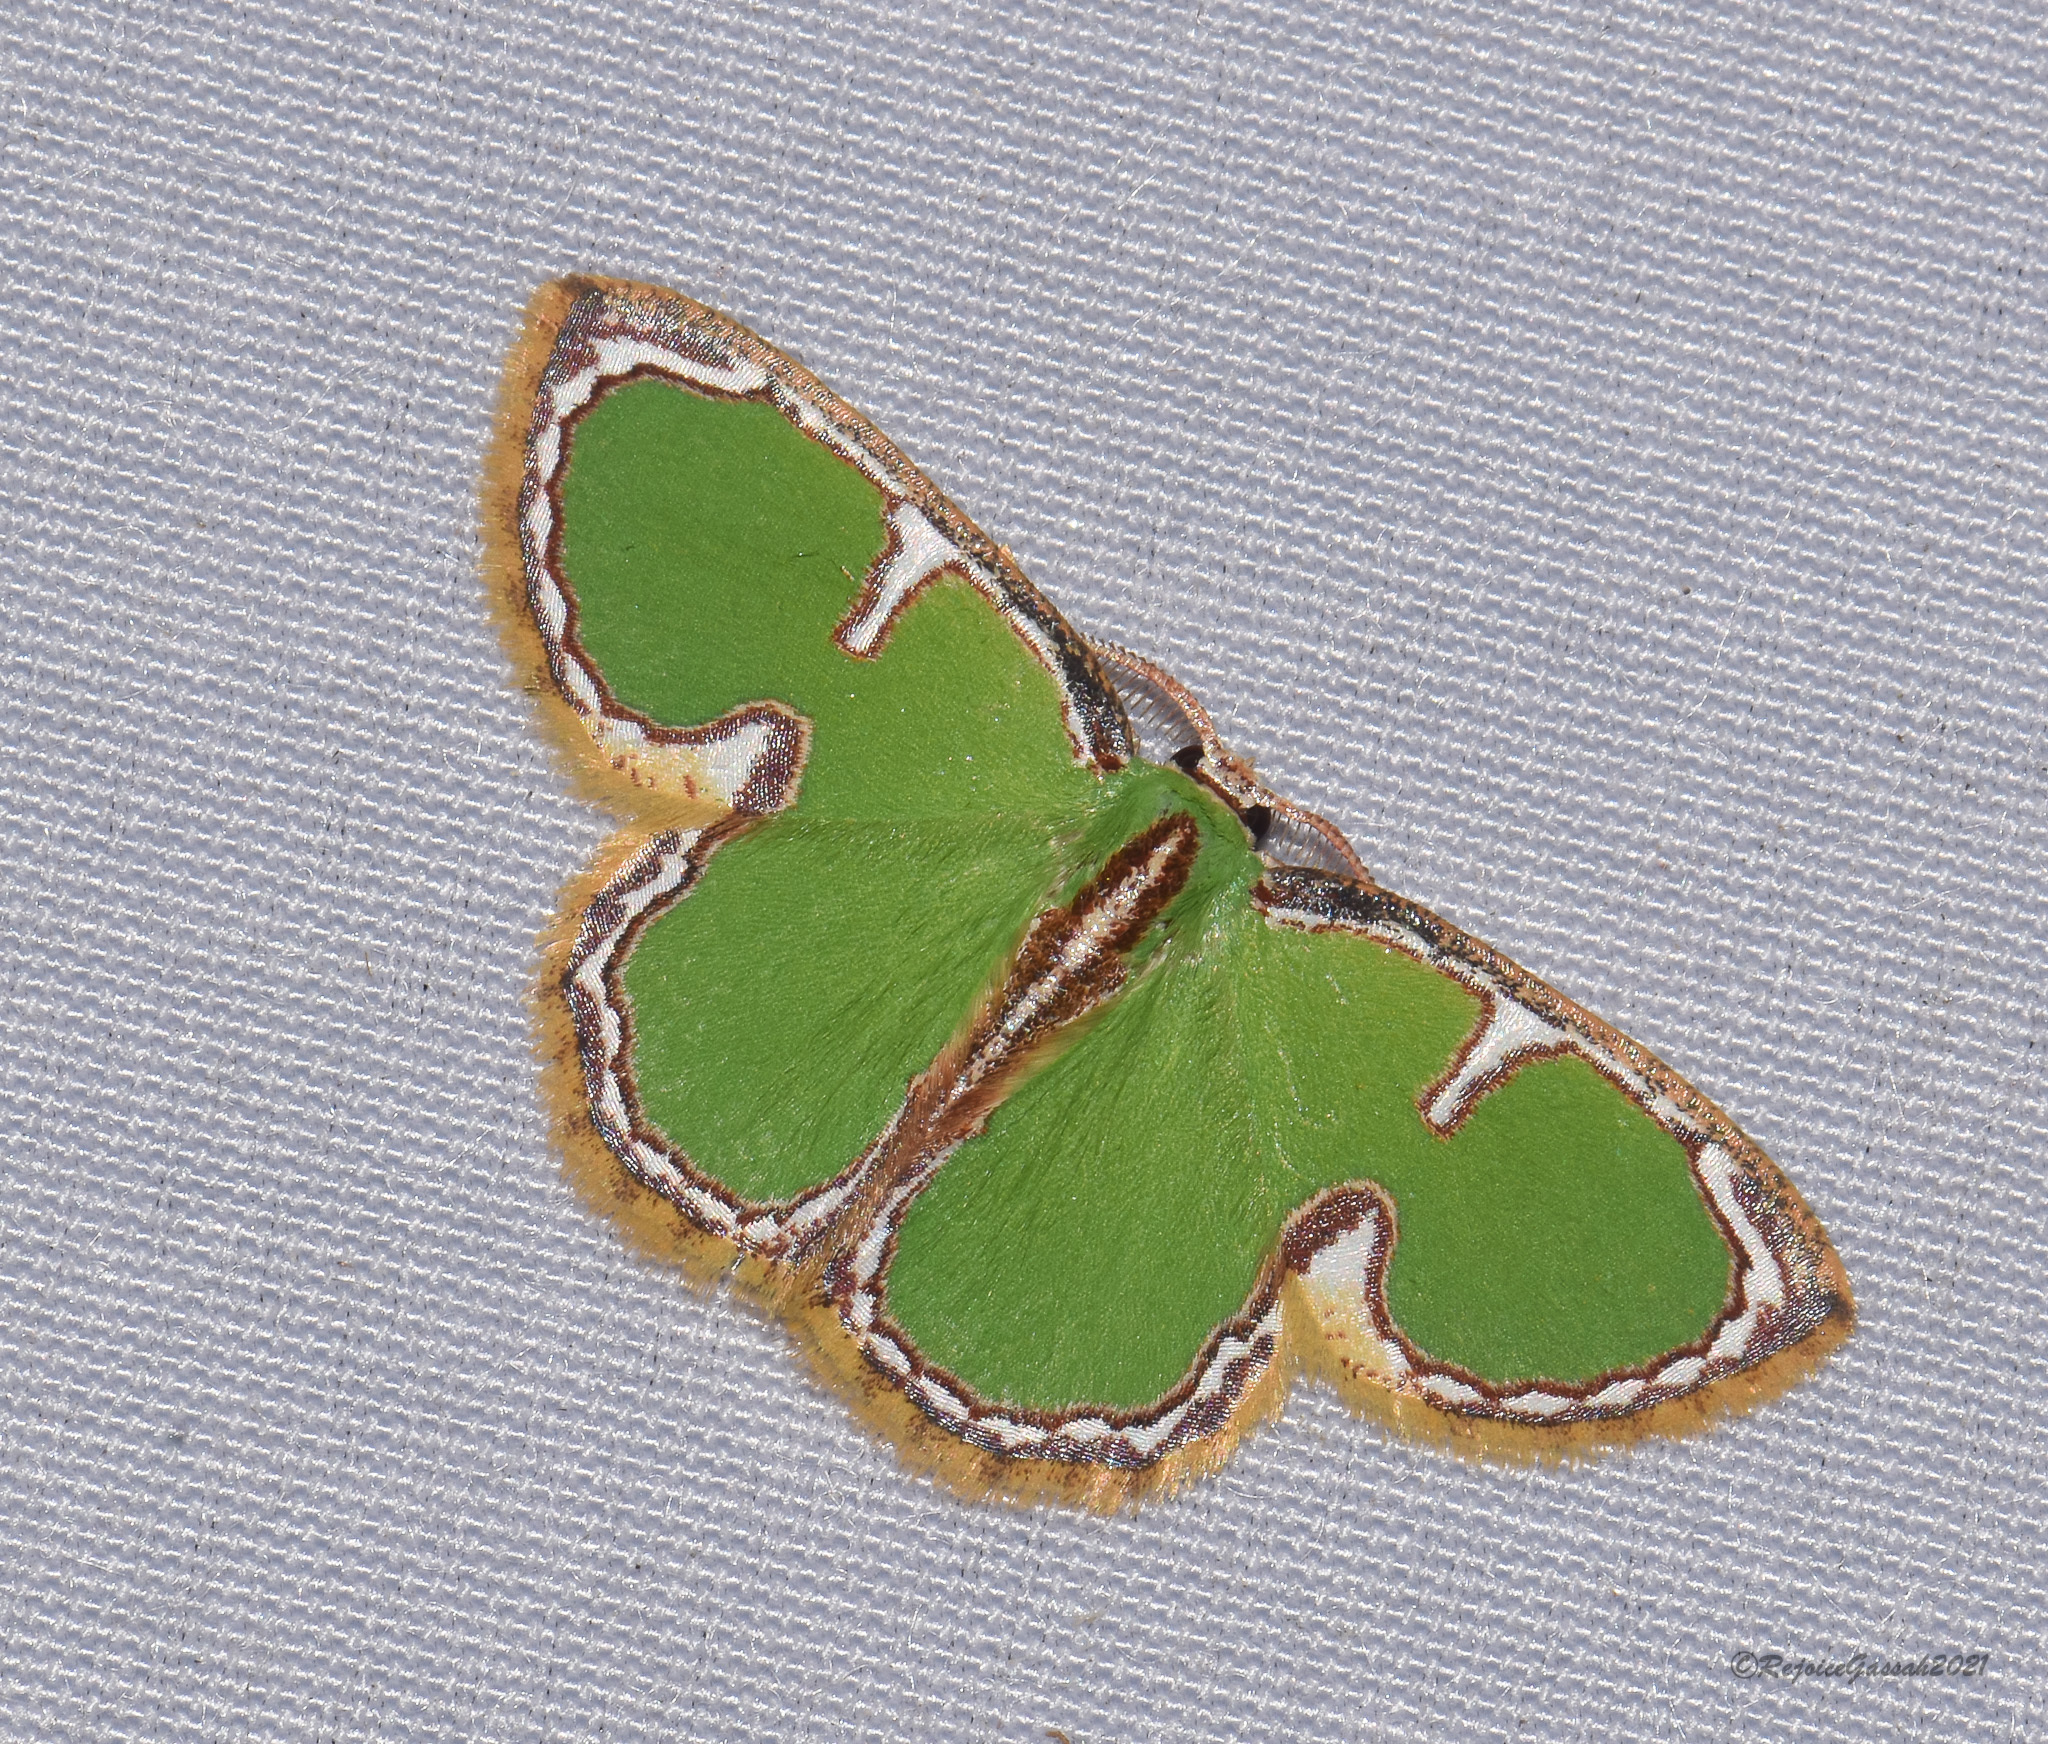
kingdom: Animalia
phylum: Arthropoda
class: Insecta
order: Lepidoptera
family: Geometridae
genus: Comostola
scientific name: Comostola cedilla
